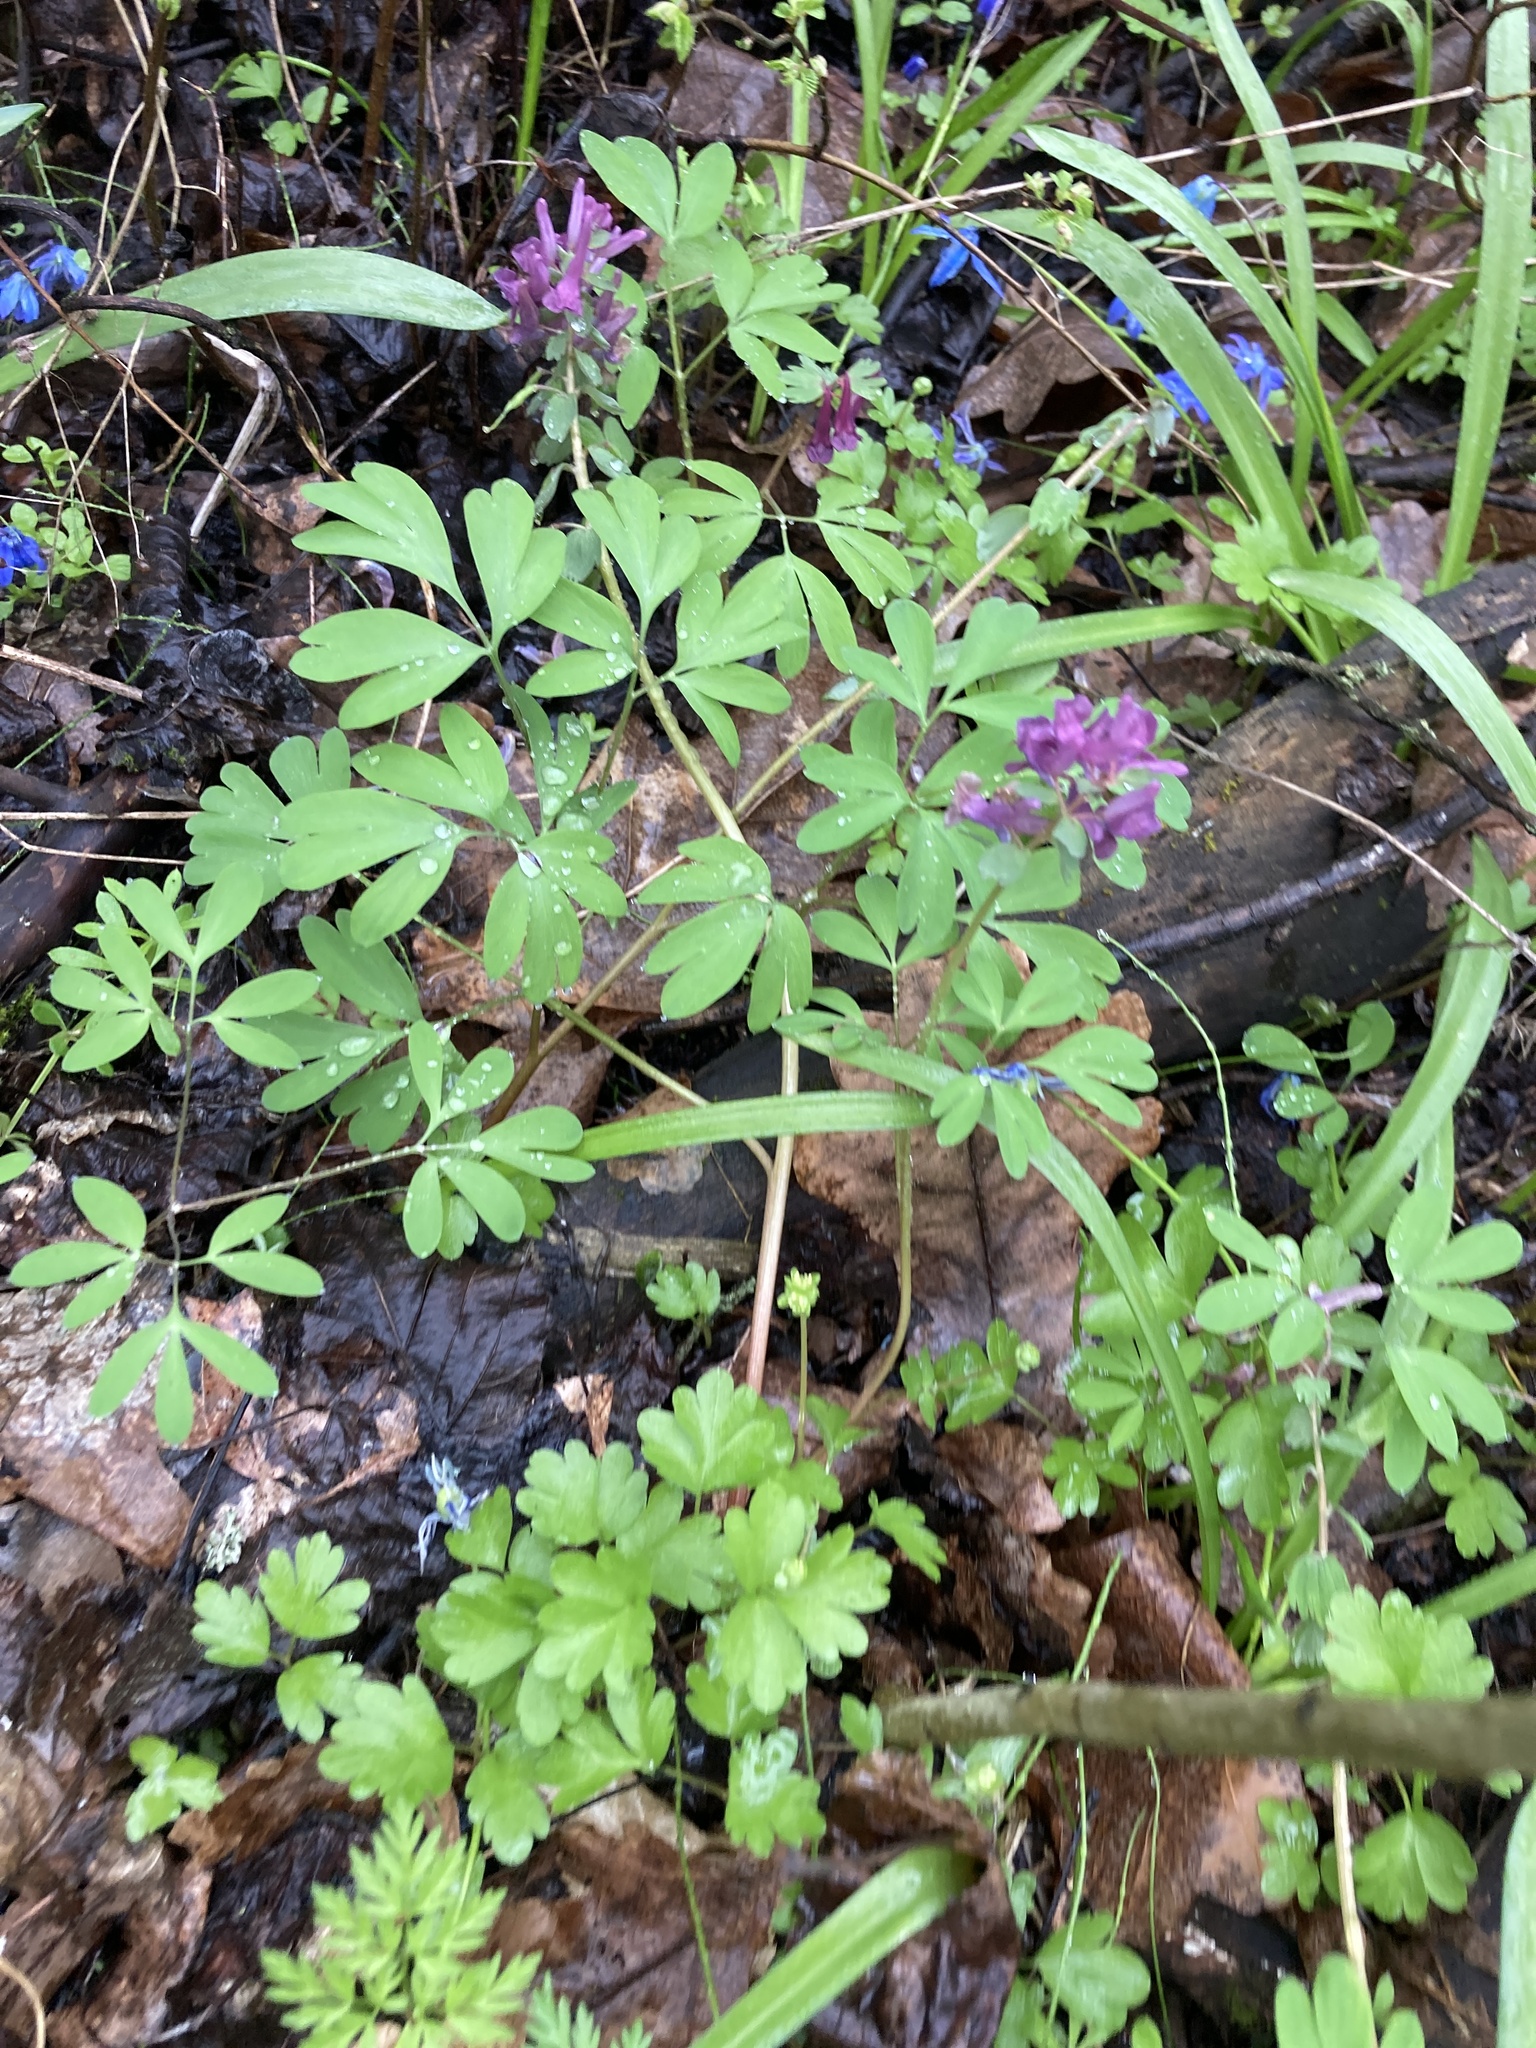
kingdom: Plantae
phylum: Tracheophyta
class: Magnoliopsida
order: Ranunculales
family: Papaveraceae
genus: Corydalis
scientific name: Corydalis solida
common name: Bird-in-a-bush
